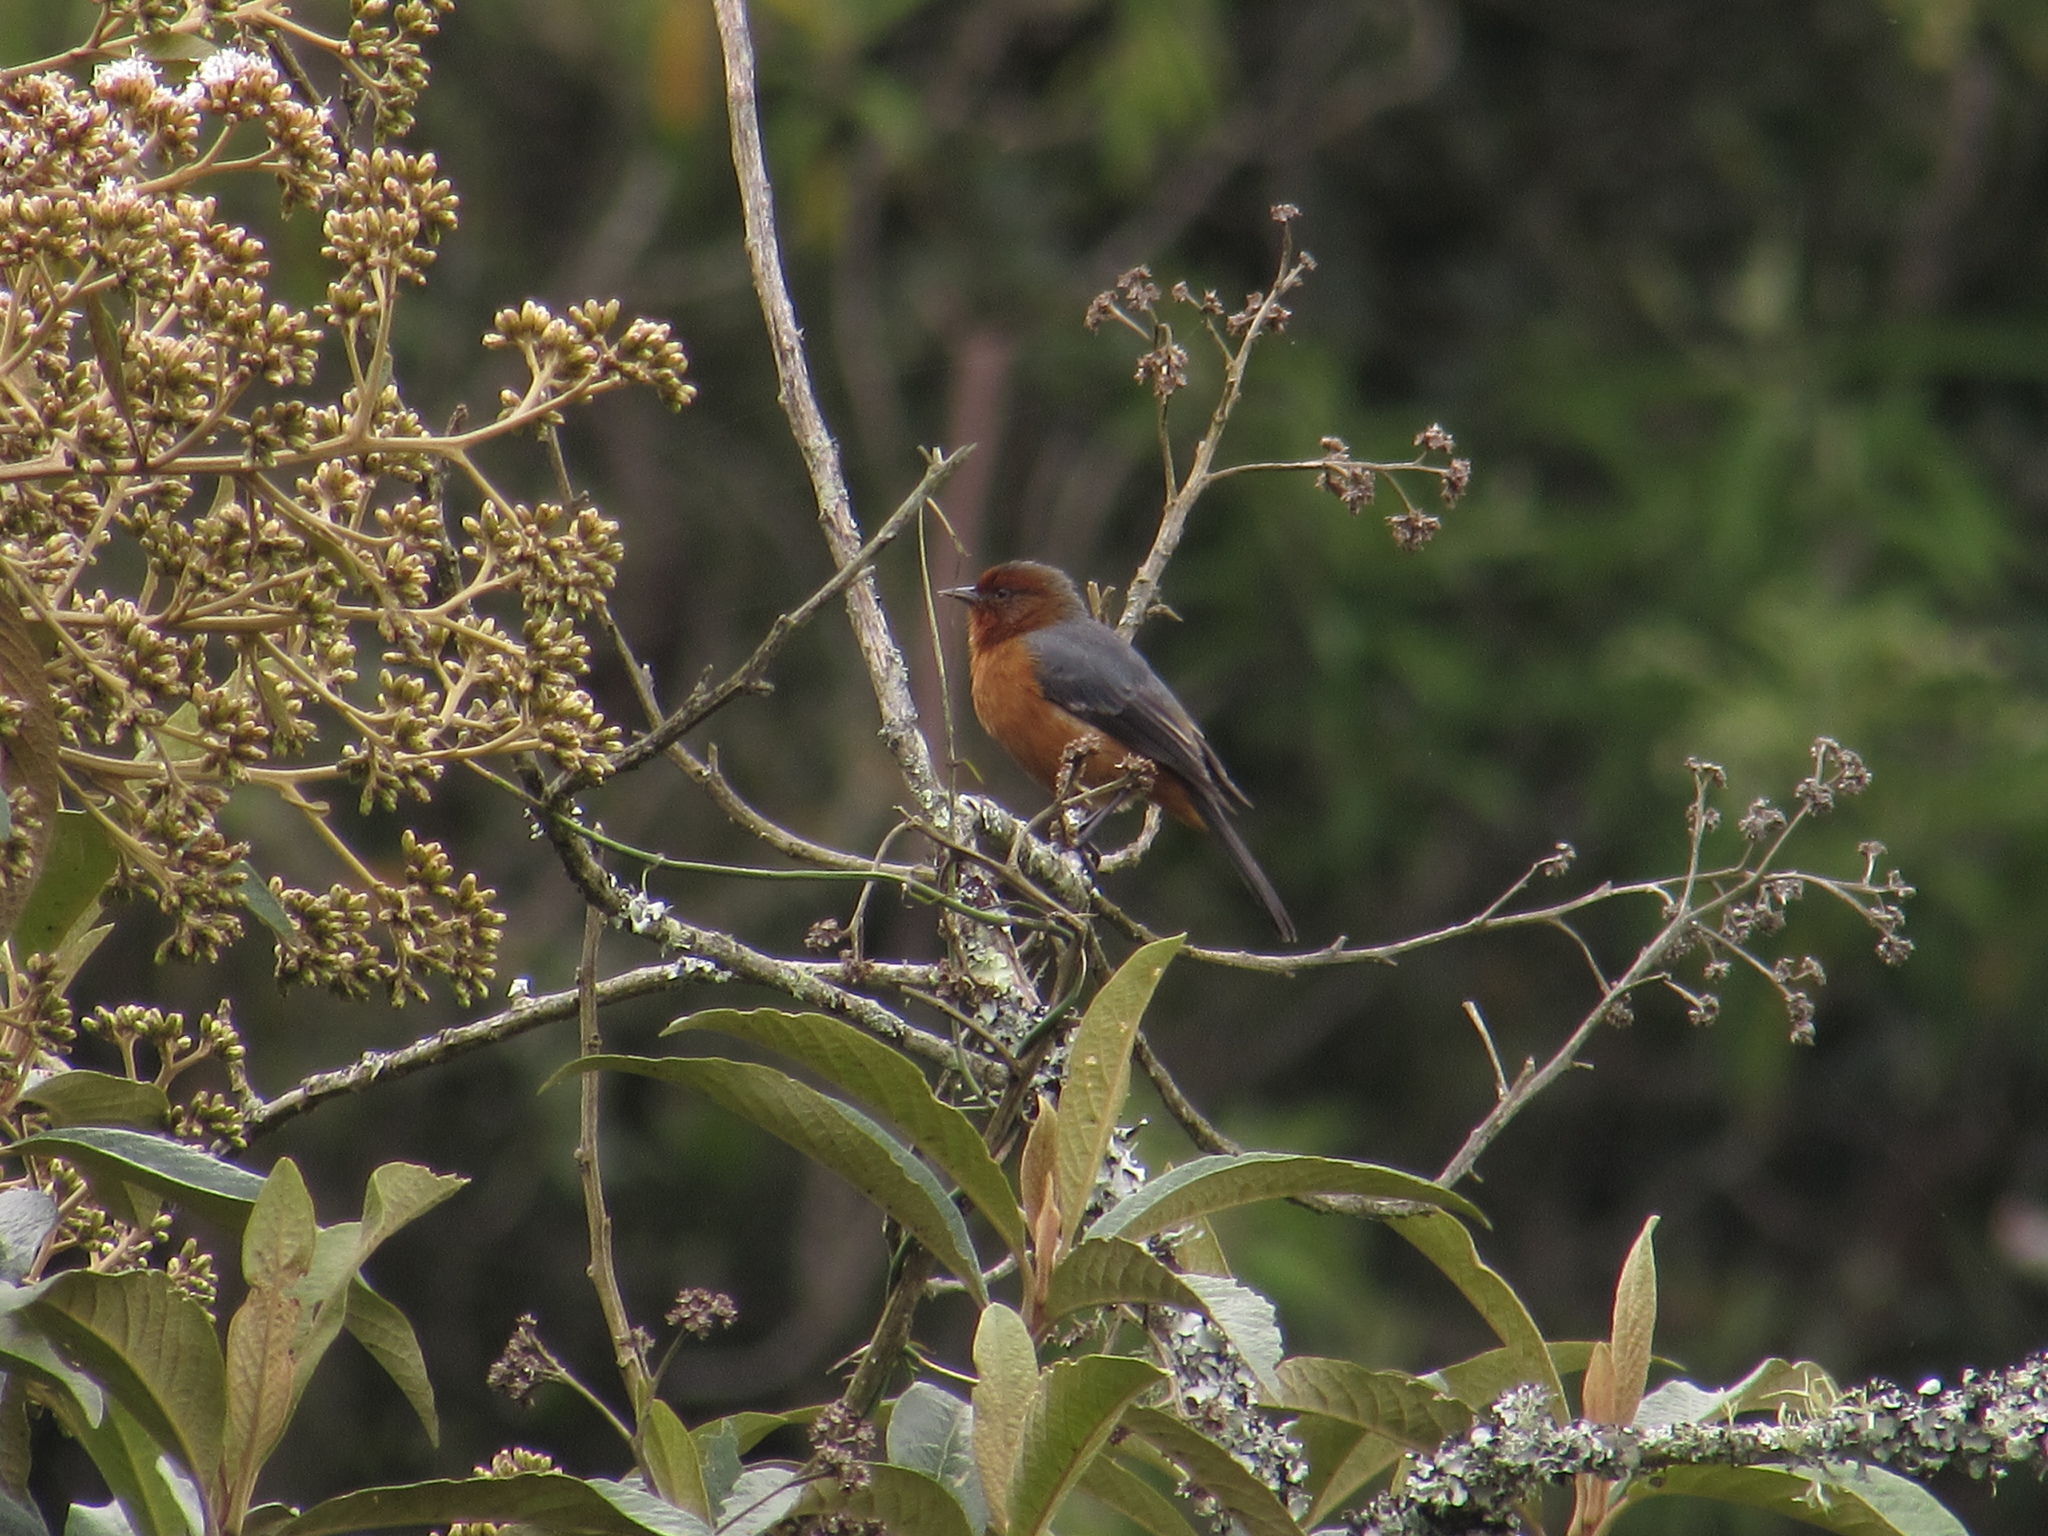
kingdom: Animalia
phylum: Chordata
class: Aves
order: Passeriformes
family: Thraupidae
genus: Conirostrum
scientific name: Conirostrum rufum
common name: Rufous-browed conebill
